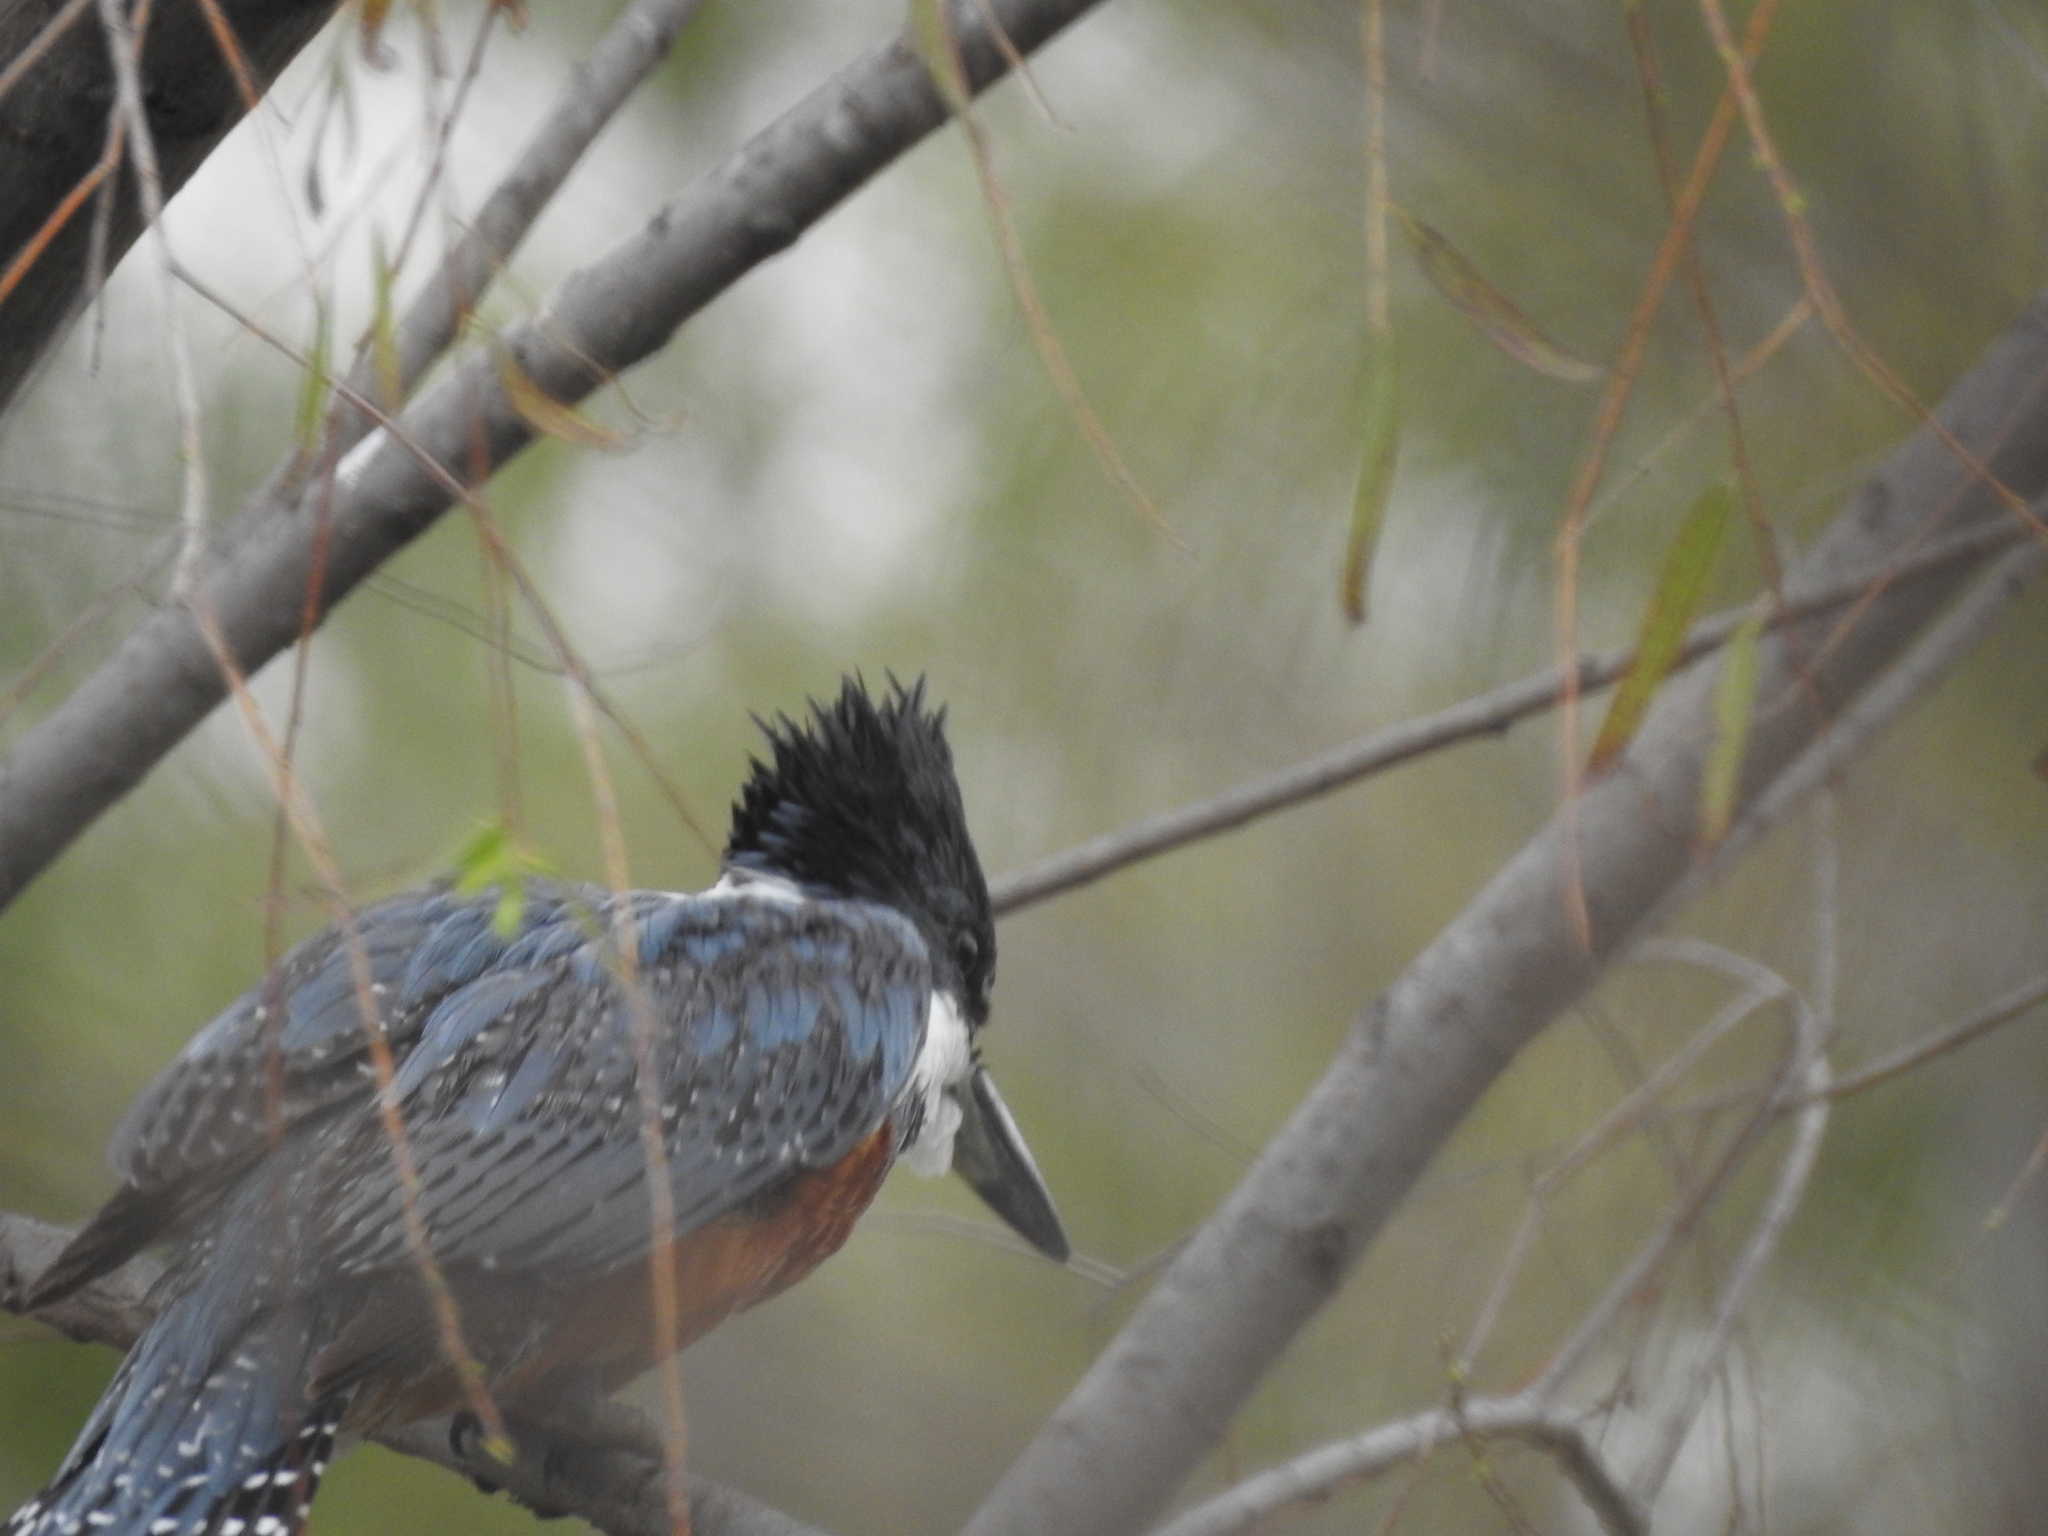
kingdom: Animalia
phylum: Chordata
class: Aves
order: Coraciiformes
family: Alcedinidae
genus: Megaceryle
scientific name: Megaceryle torquata
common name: Ringed kingfisher
